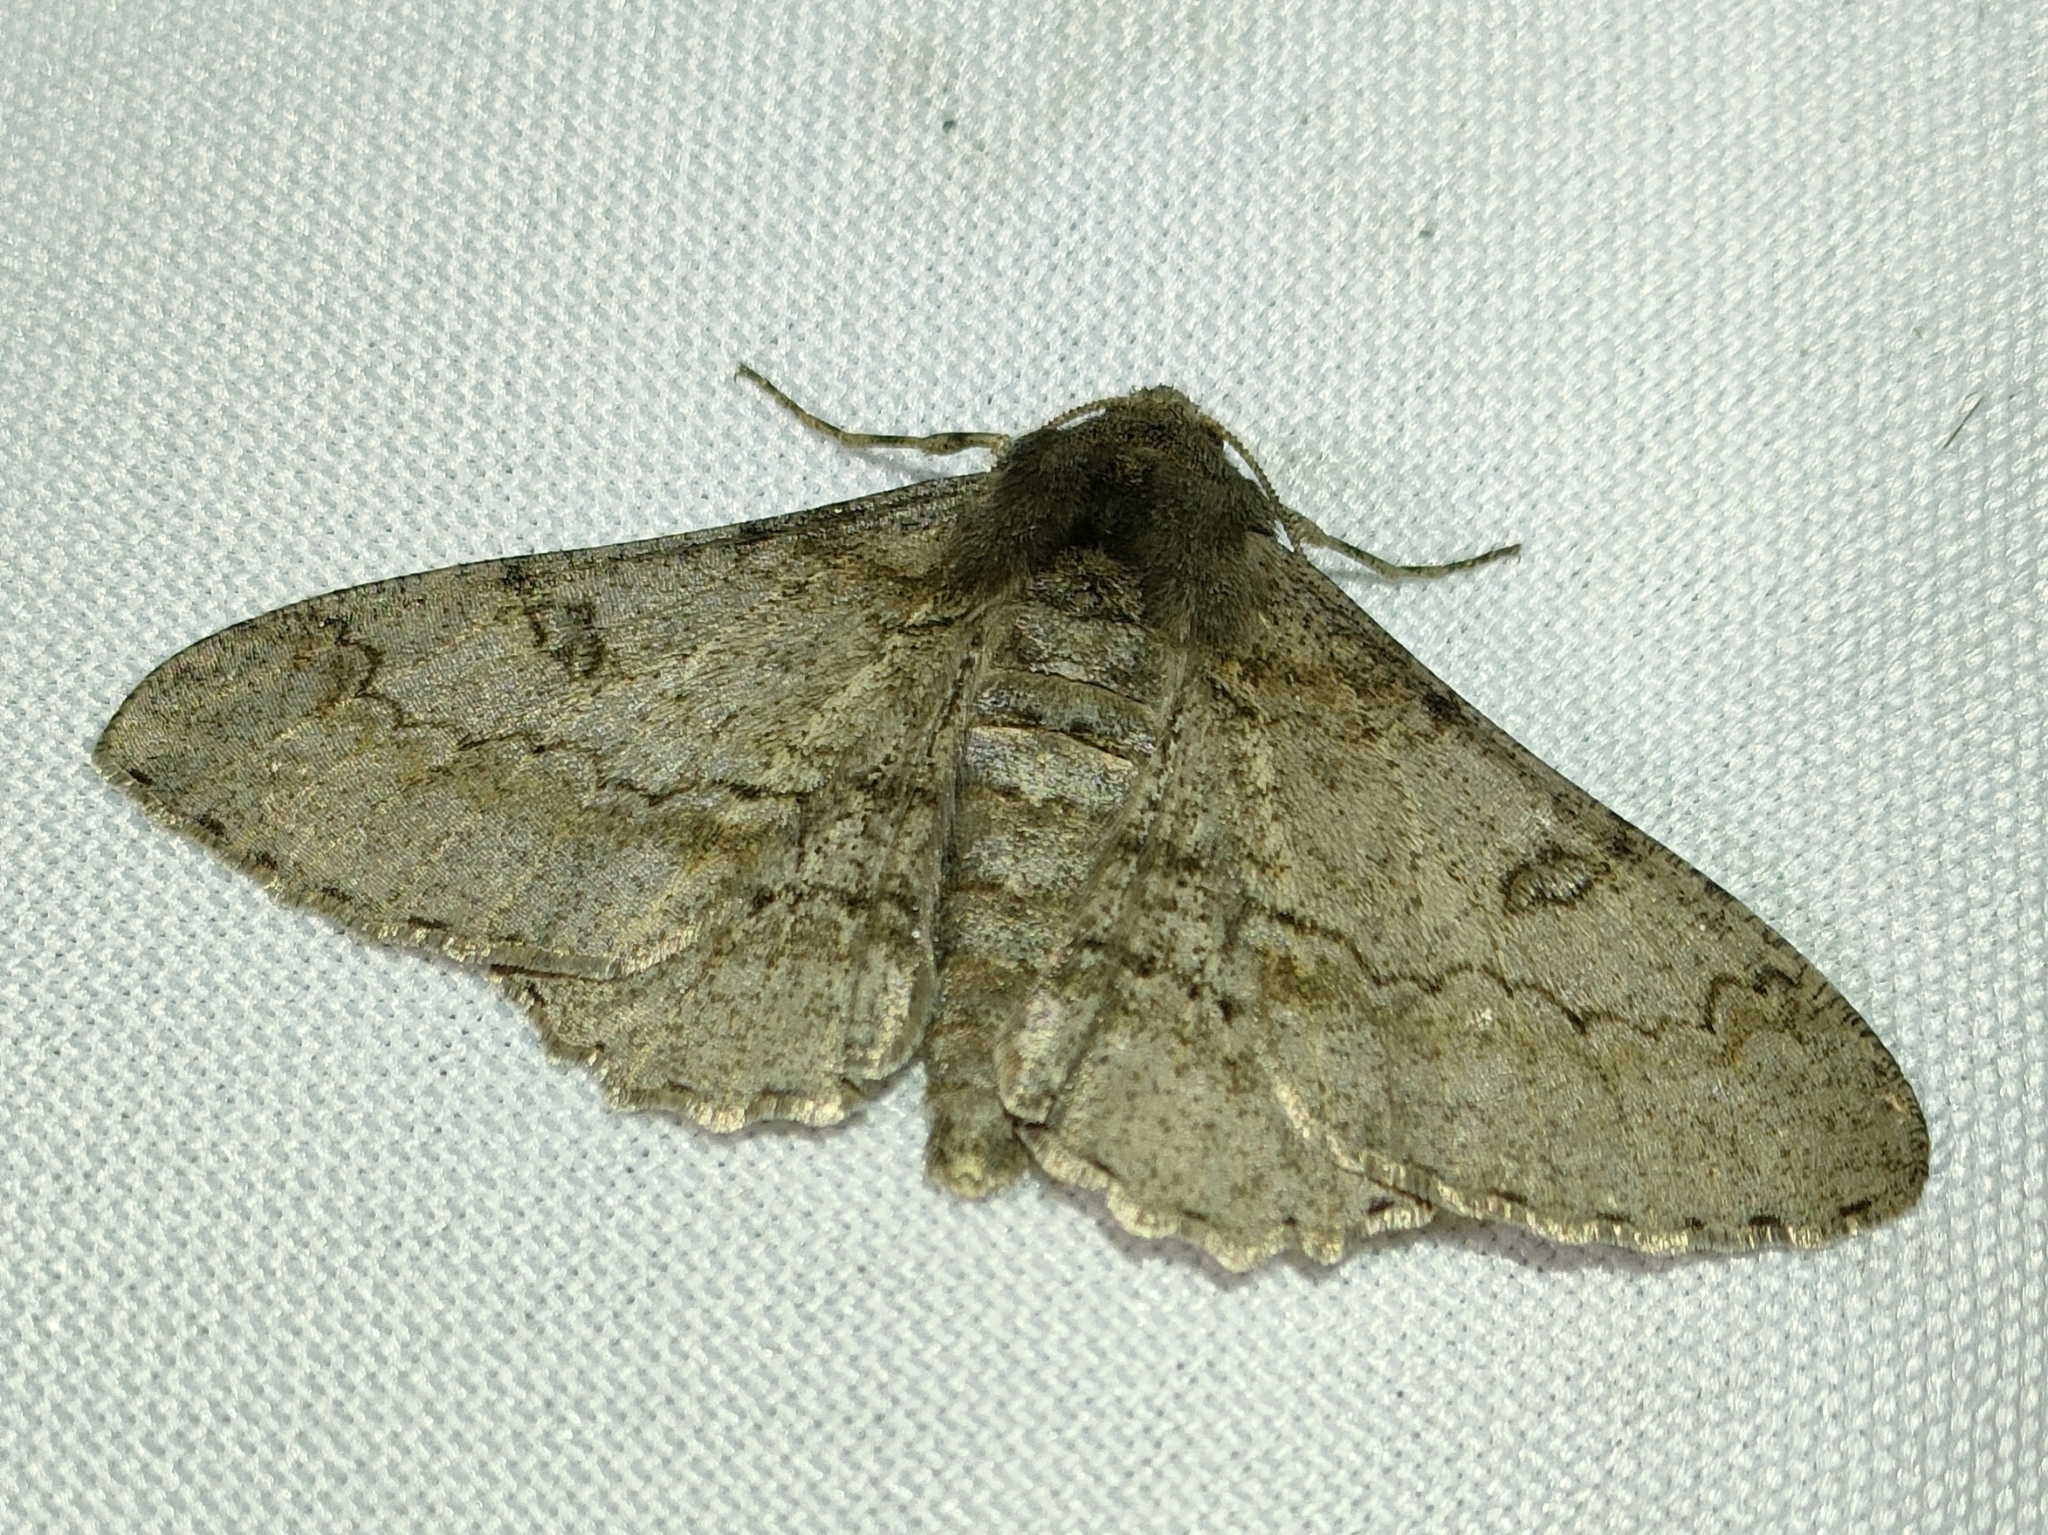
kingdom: Animalia
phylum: Arthropoda
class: Insecta
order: Lepidoptera
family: Geometridae
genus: Ascotis
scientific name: Ascotis selenaria
